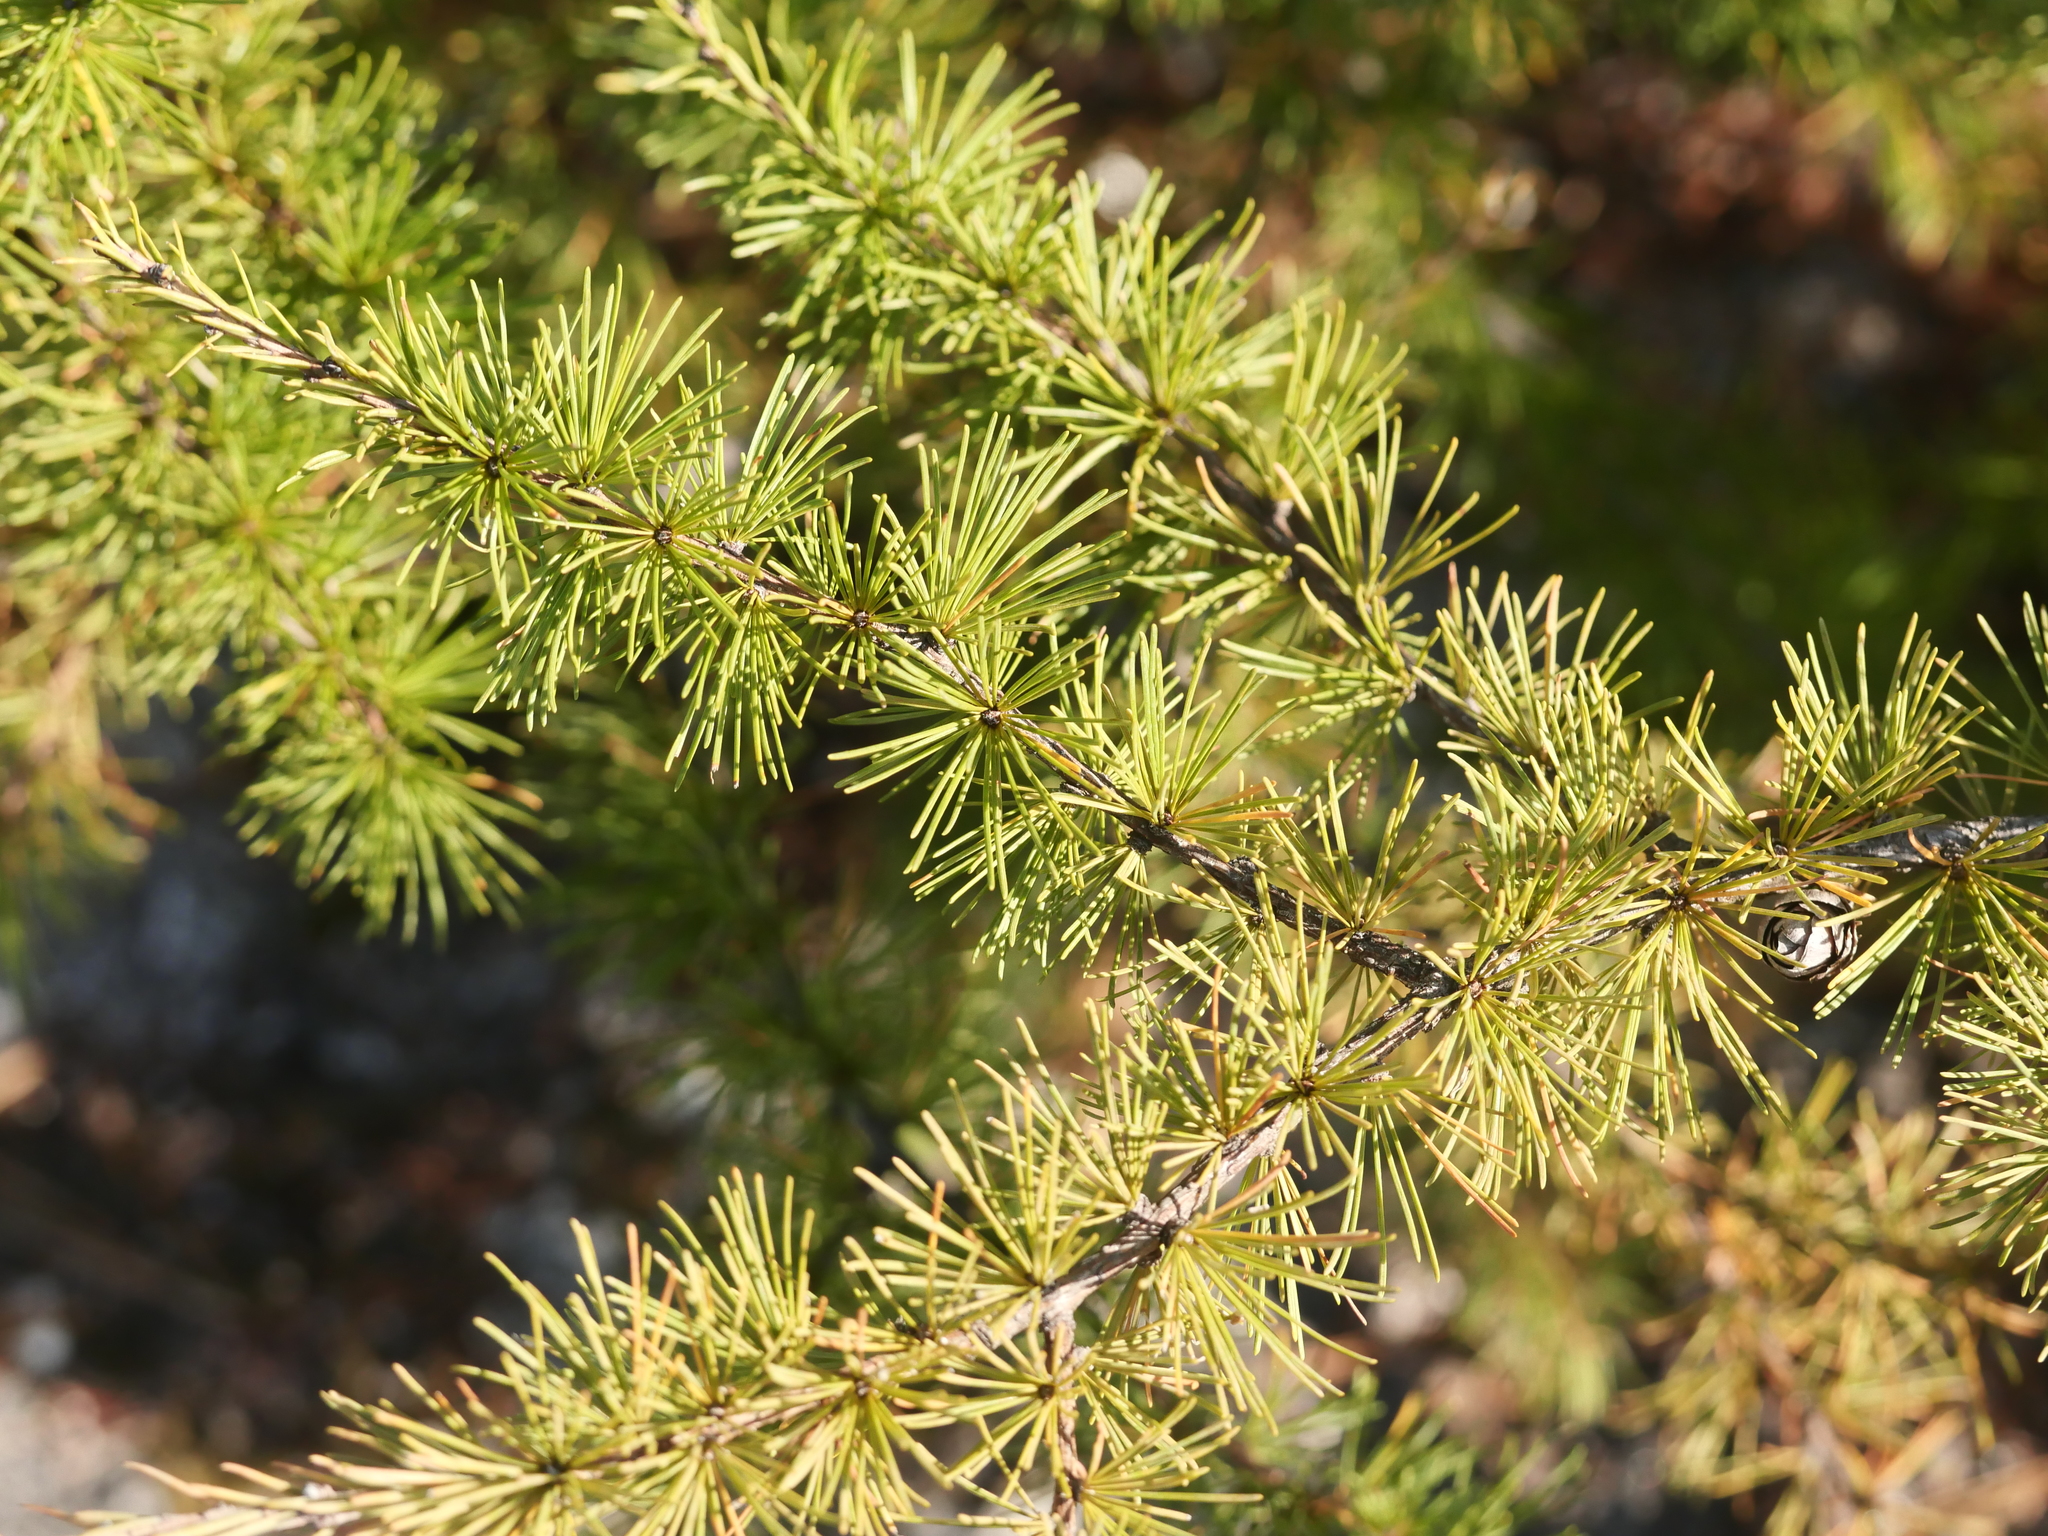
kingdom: Plantae
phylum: Tracheophyta
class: Pinopsida
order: Pinales
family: Pinaceae
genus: Larix
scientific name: Larix laricina
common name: American larch
